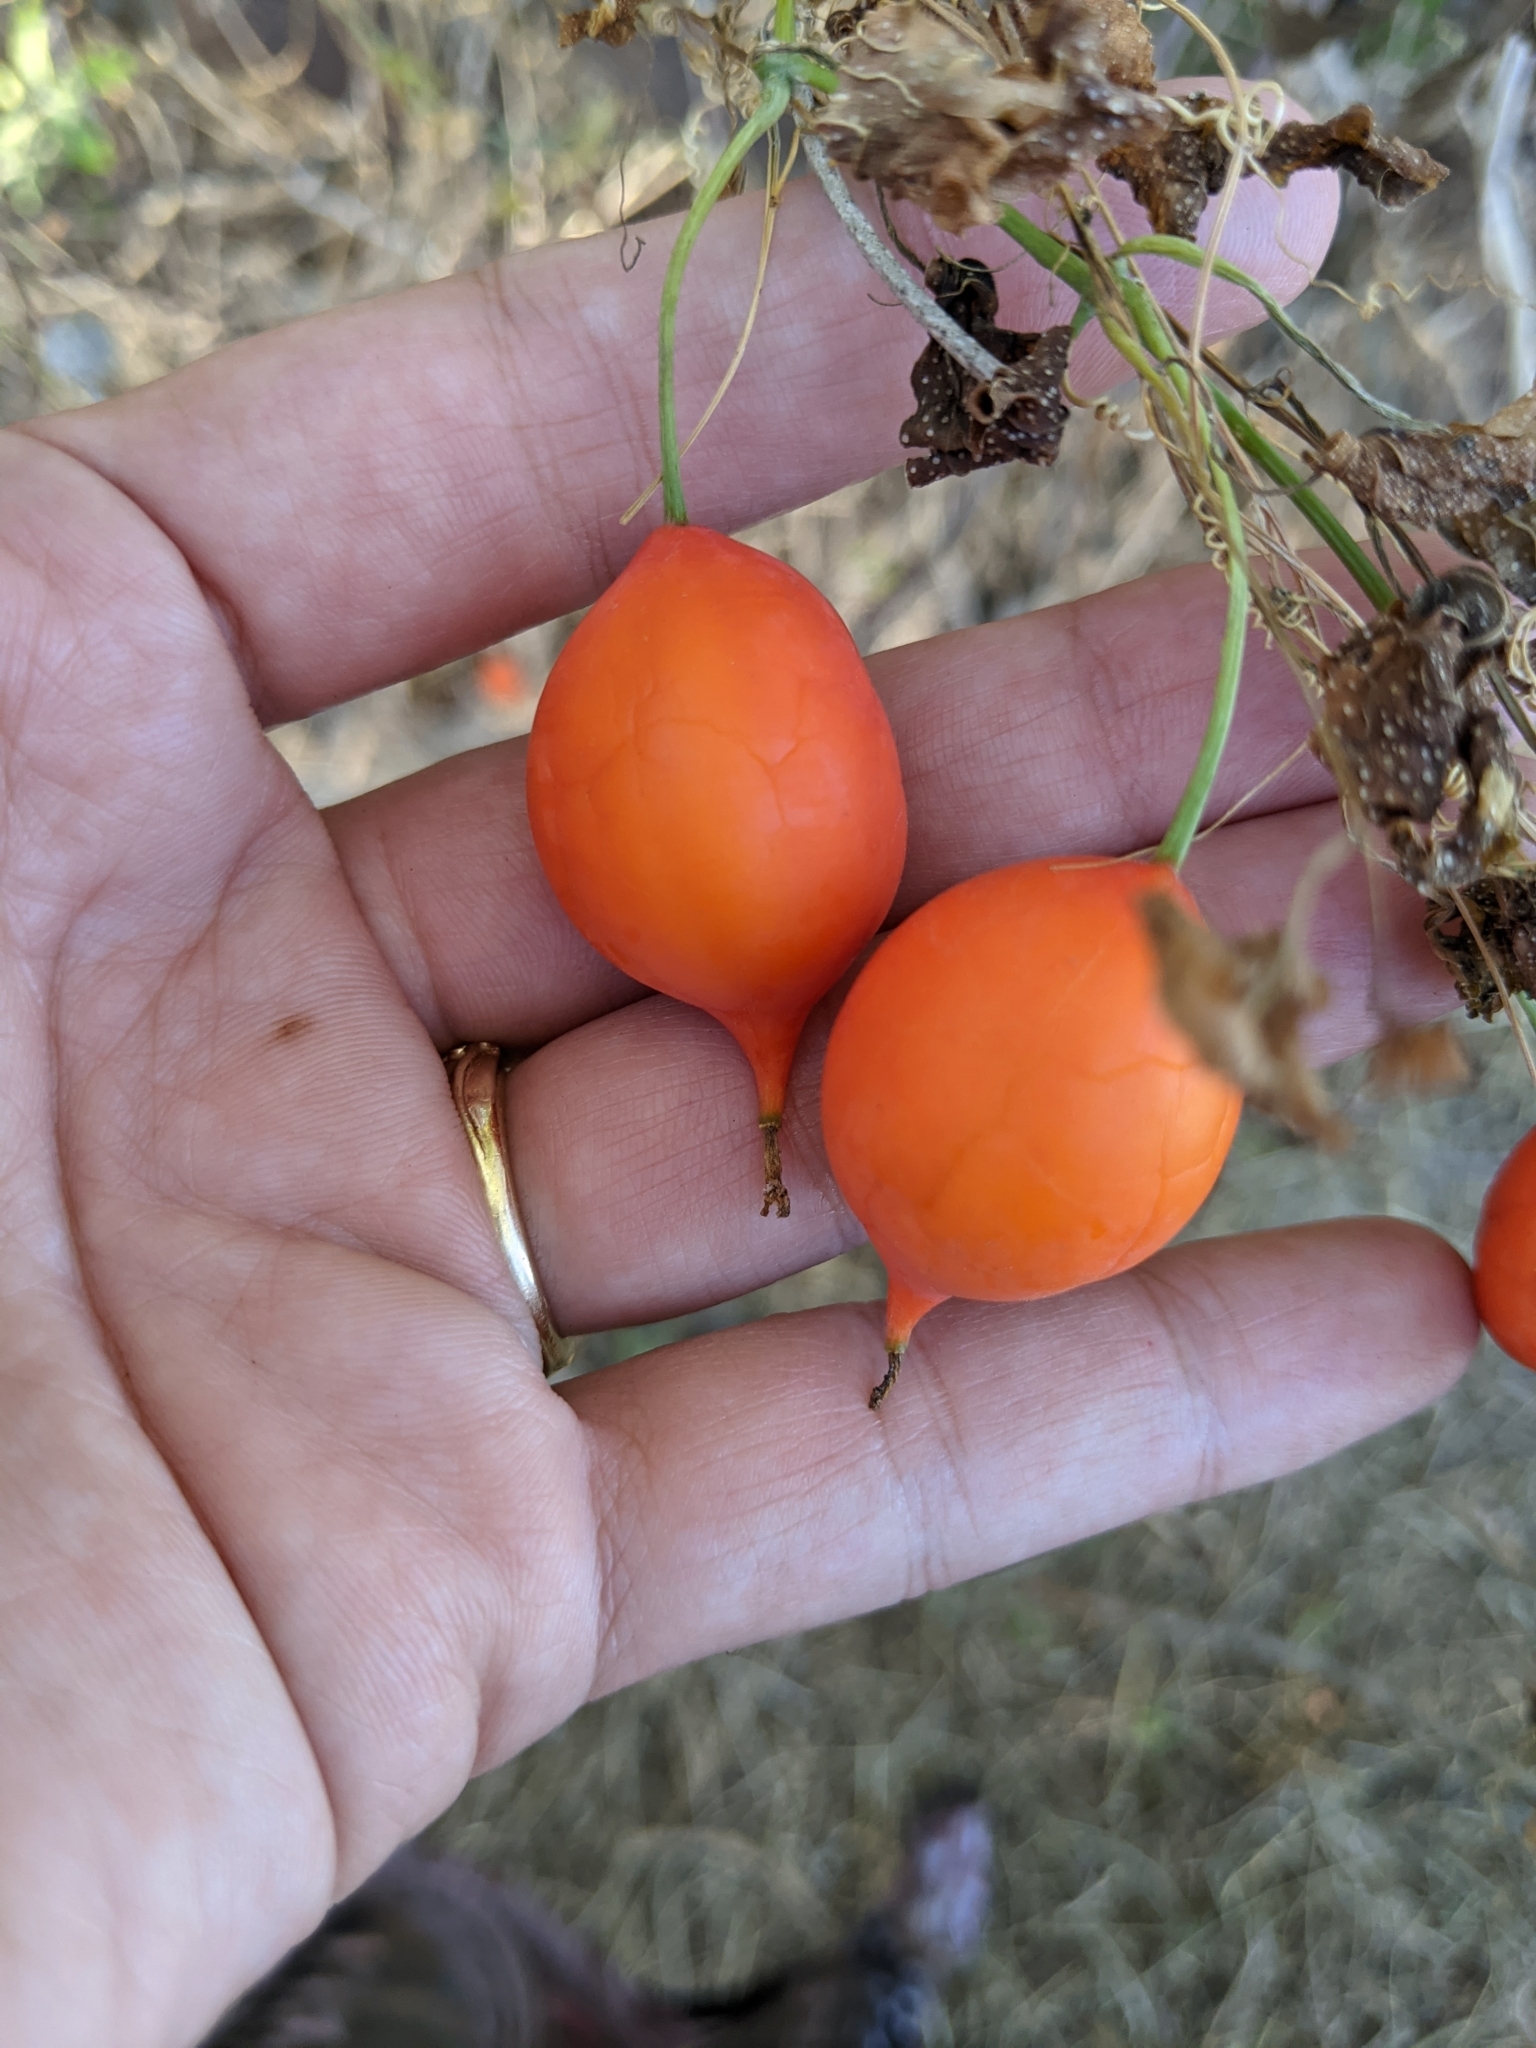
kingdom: Plantae
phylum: Tracheophyta
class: Magnoliopsida
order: Cucurbitales
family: Cucurbitaceae
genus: Ibervillea
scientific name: Ibervillea lindheimeri
